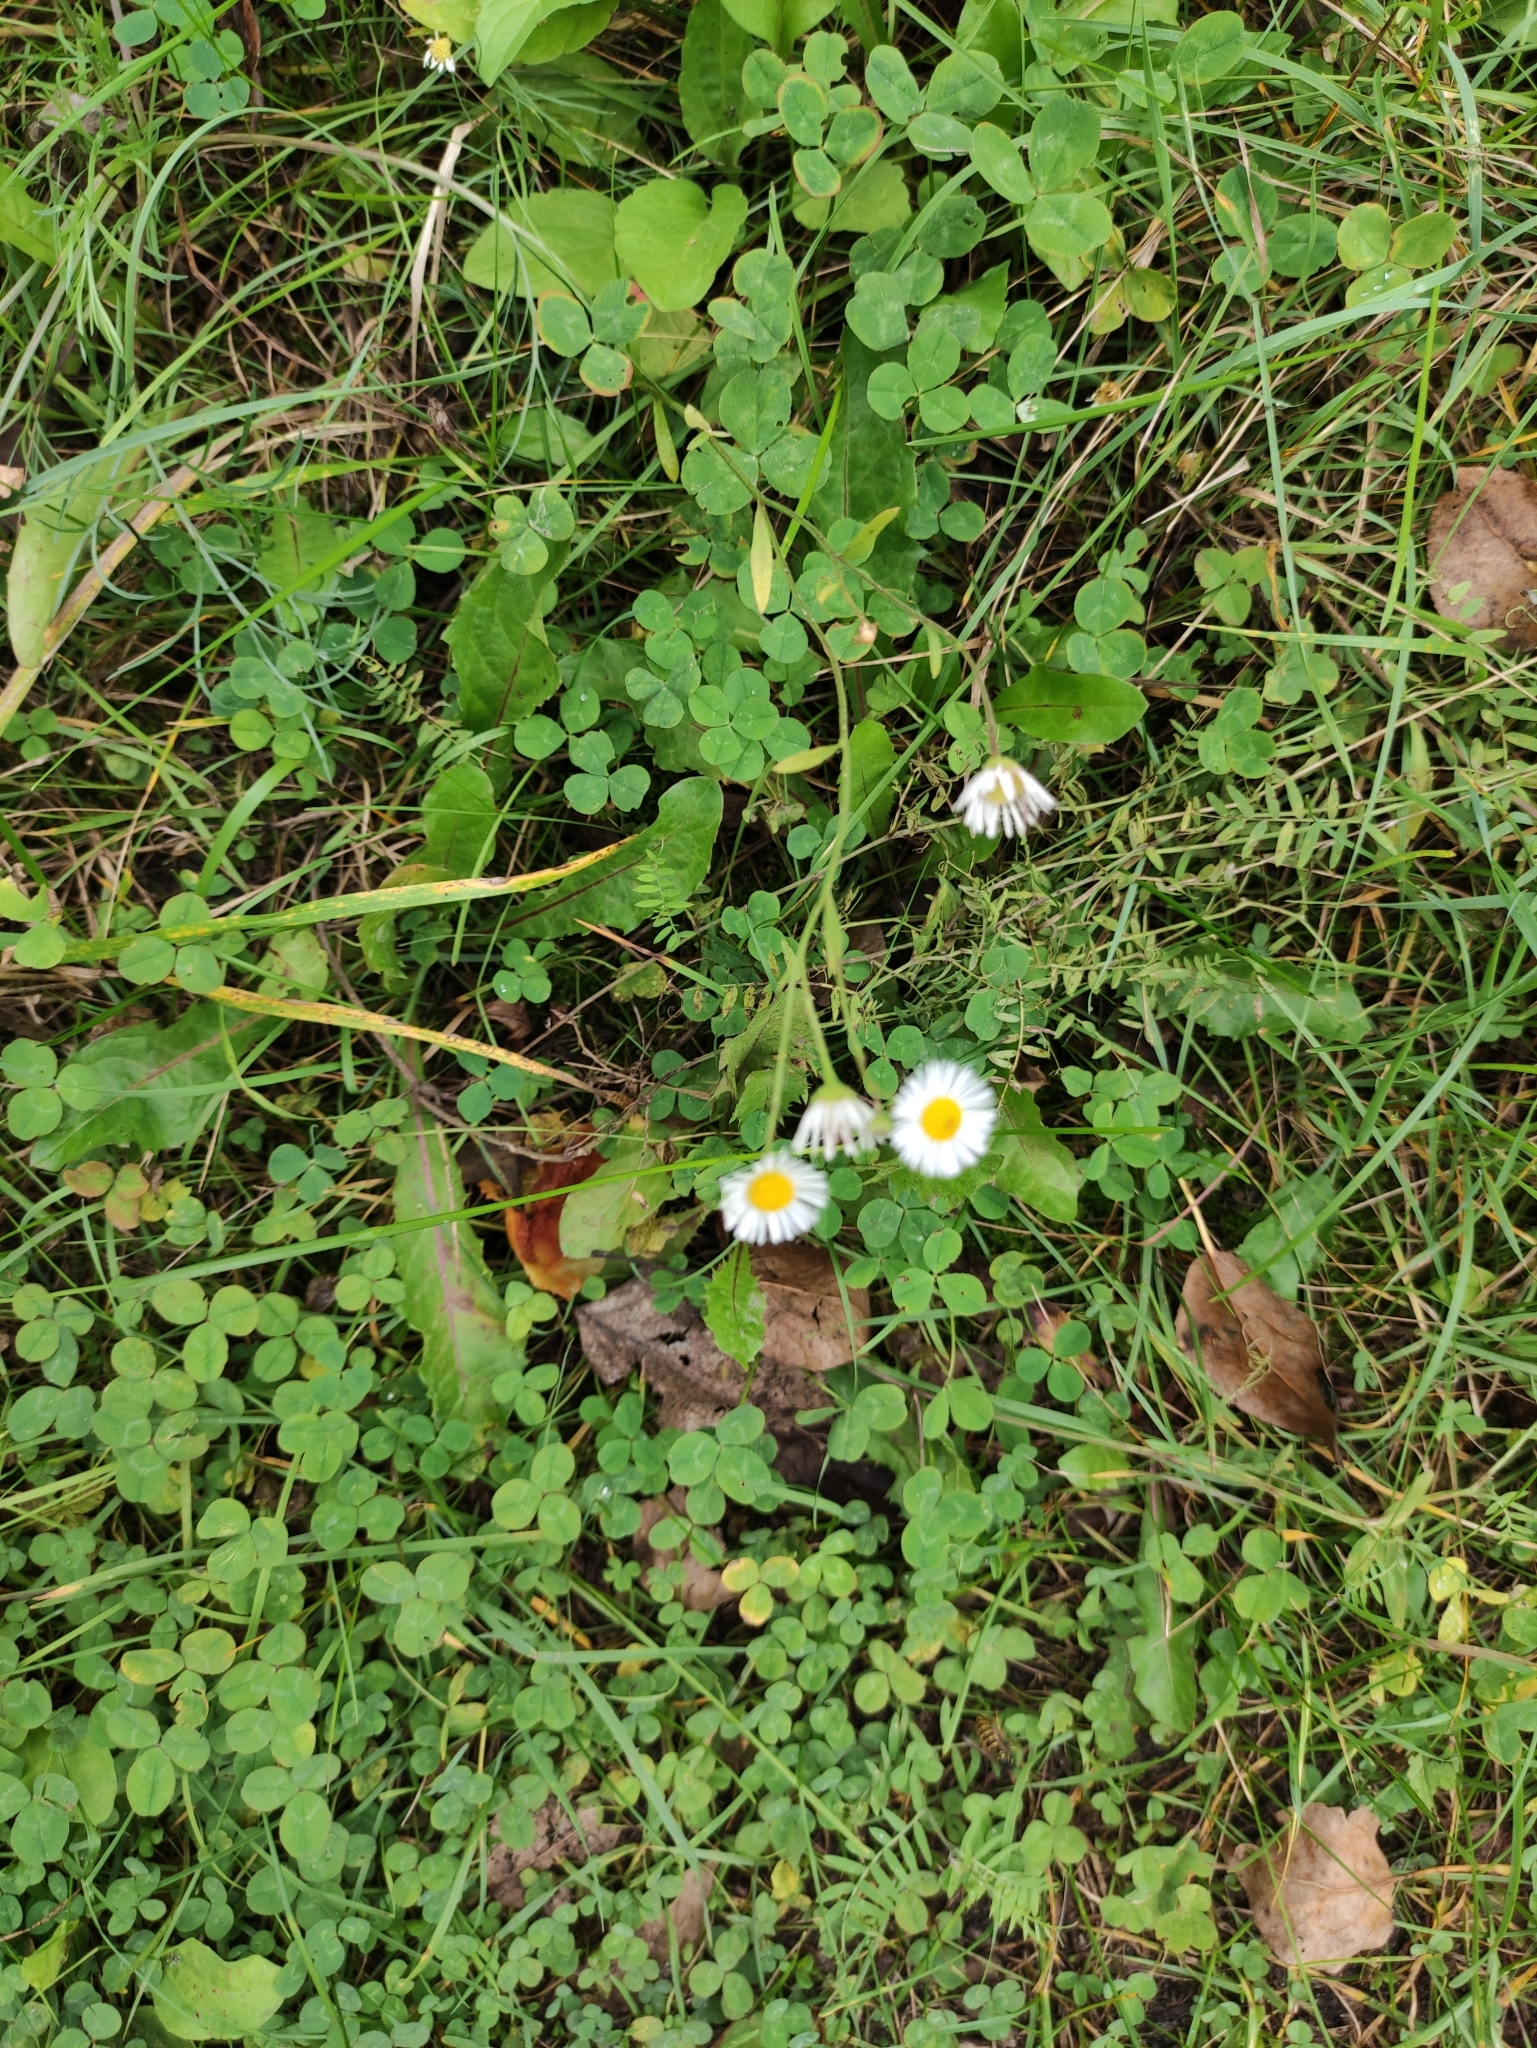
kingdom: Plantae
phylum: Tracheophyta
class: Magnoliopsida
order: Asterales
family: Asteraceae
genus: Erigeron
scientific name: Erigeron annuus
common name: Tall fleabane
